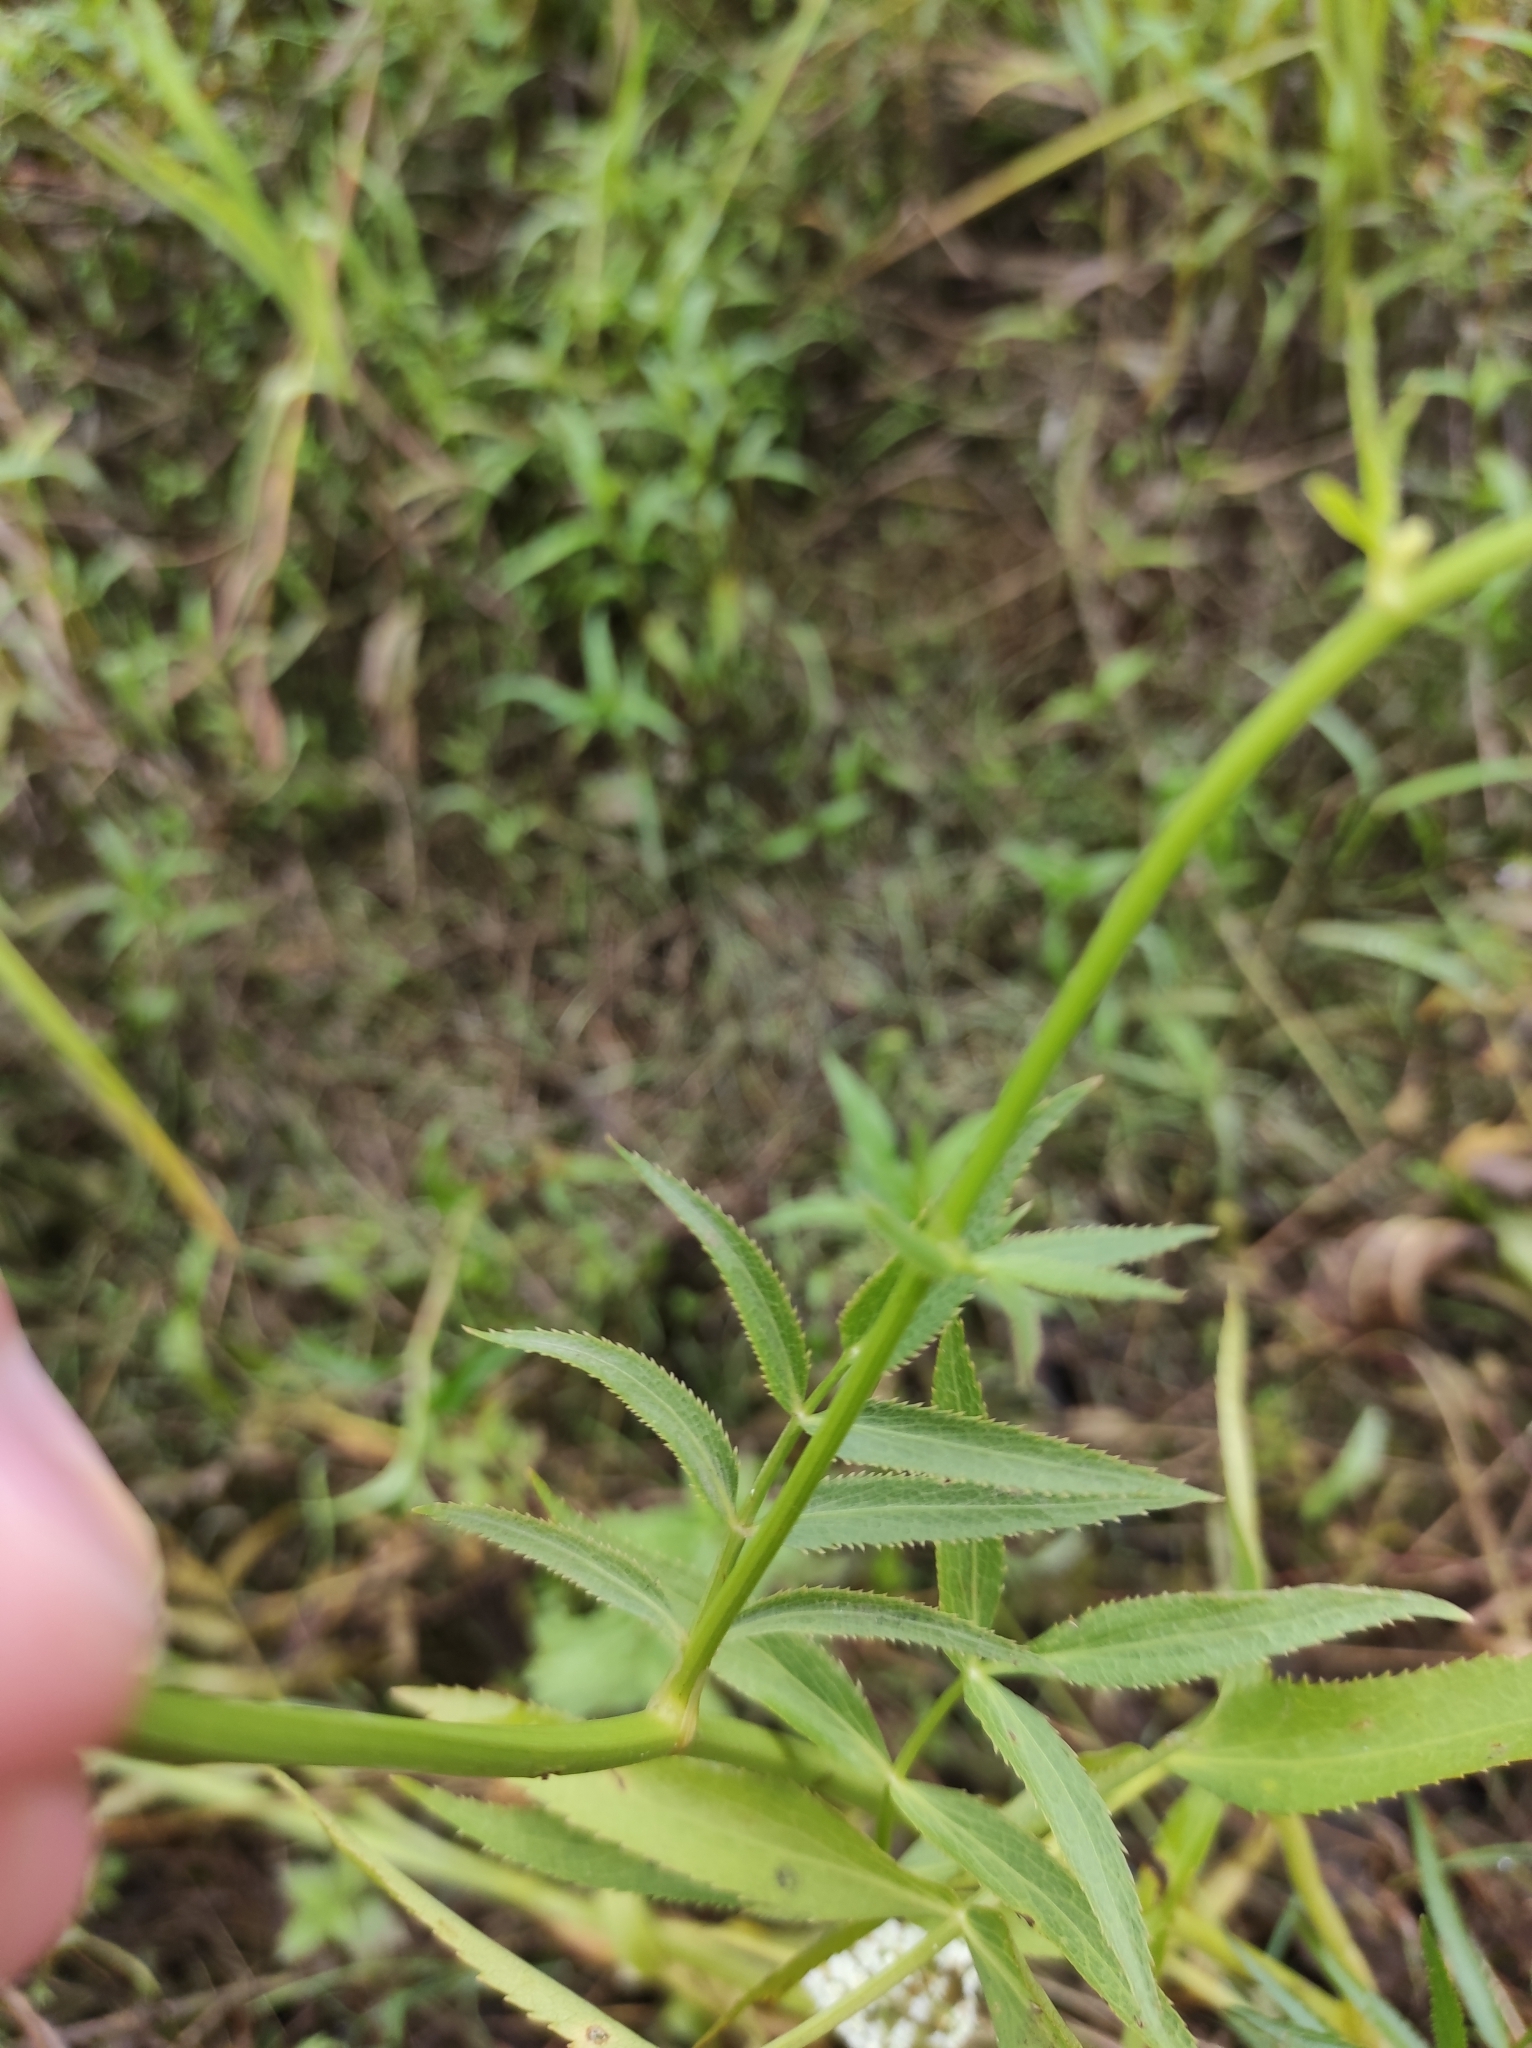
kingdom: Plantae
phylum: Tracheophyta
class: Magnoliopsida
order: Apiales
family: Apiaceae
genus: Sium
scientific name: Sium suave
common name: Hemlock water-parsnip
